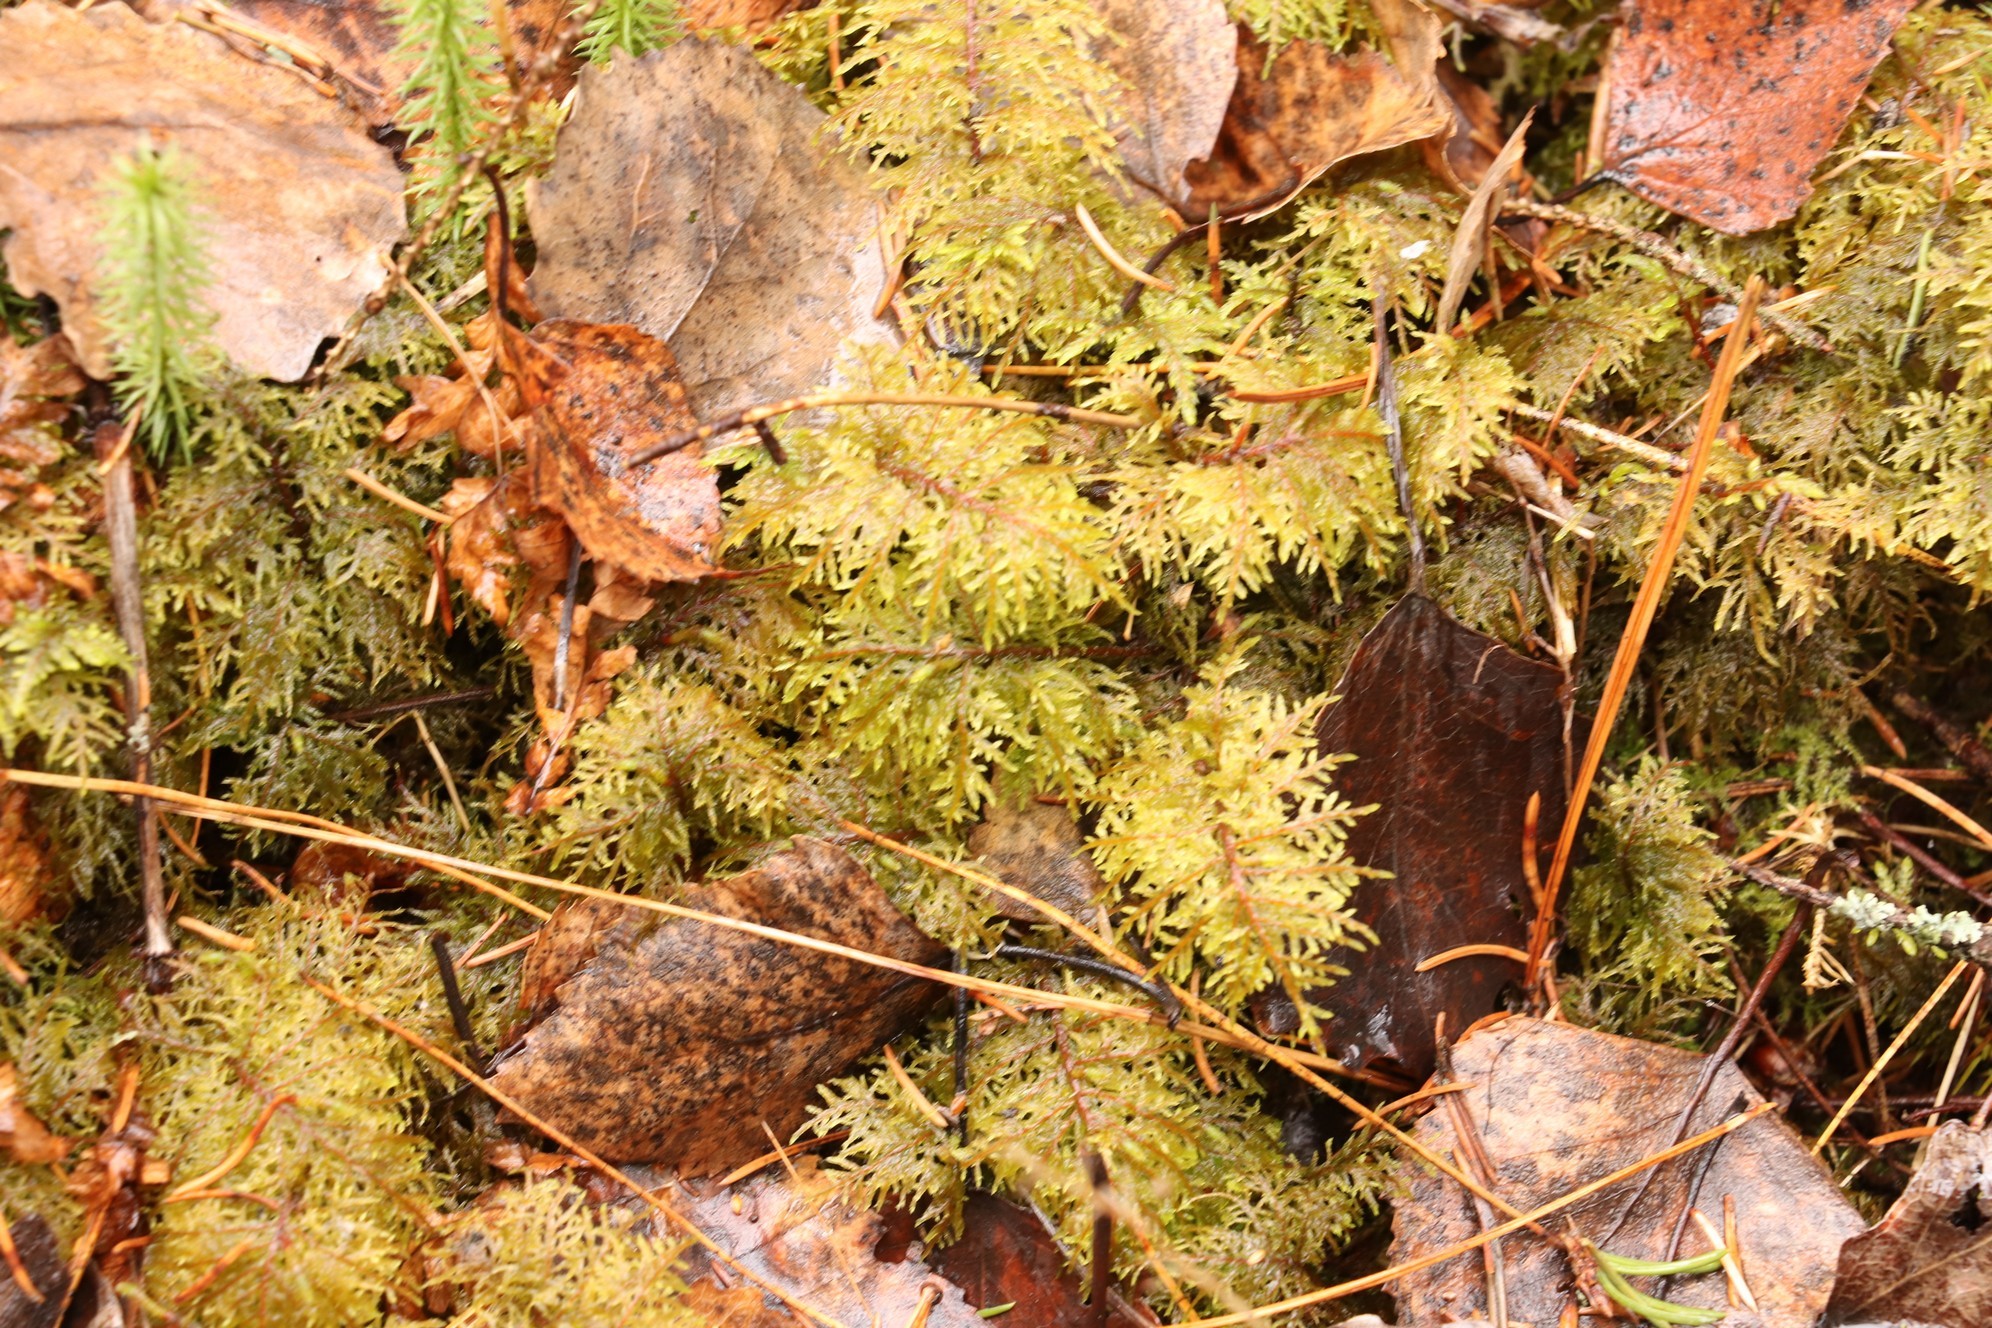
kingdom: Plantae
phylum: Bryophyta
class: Bryopsida
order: Hypnales
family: Hylocomiaceae
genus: Hylocomium
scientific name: Hylocomium splendens
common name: Stairstep moss
